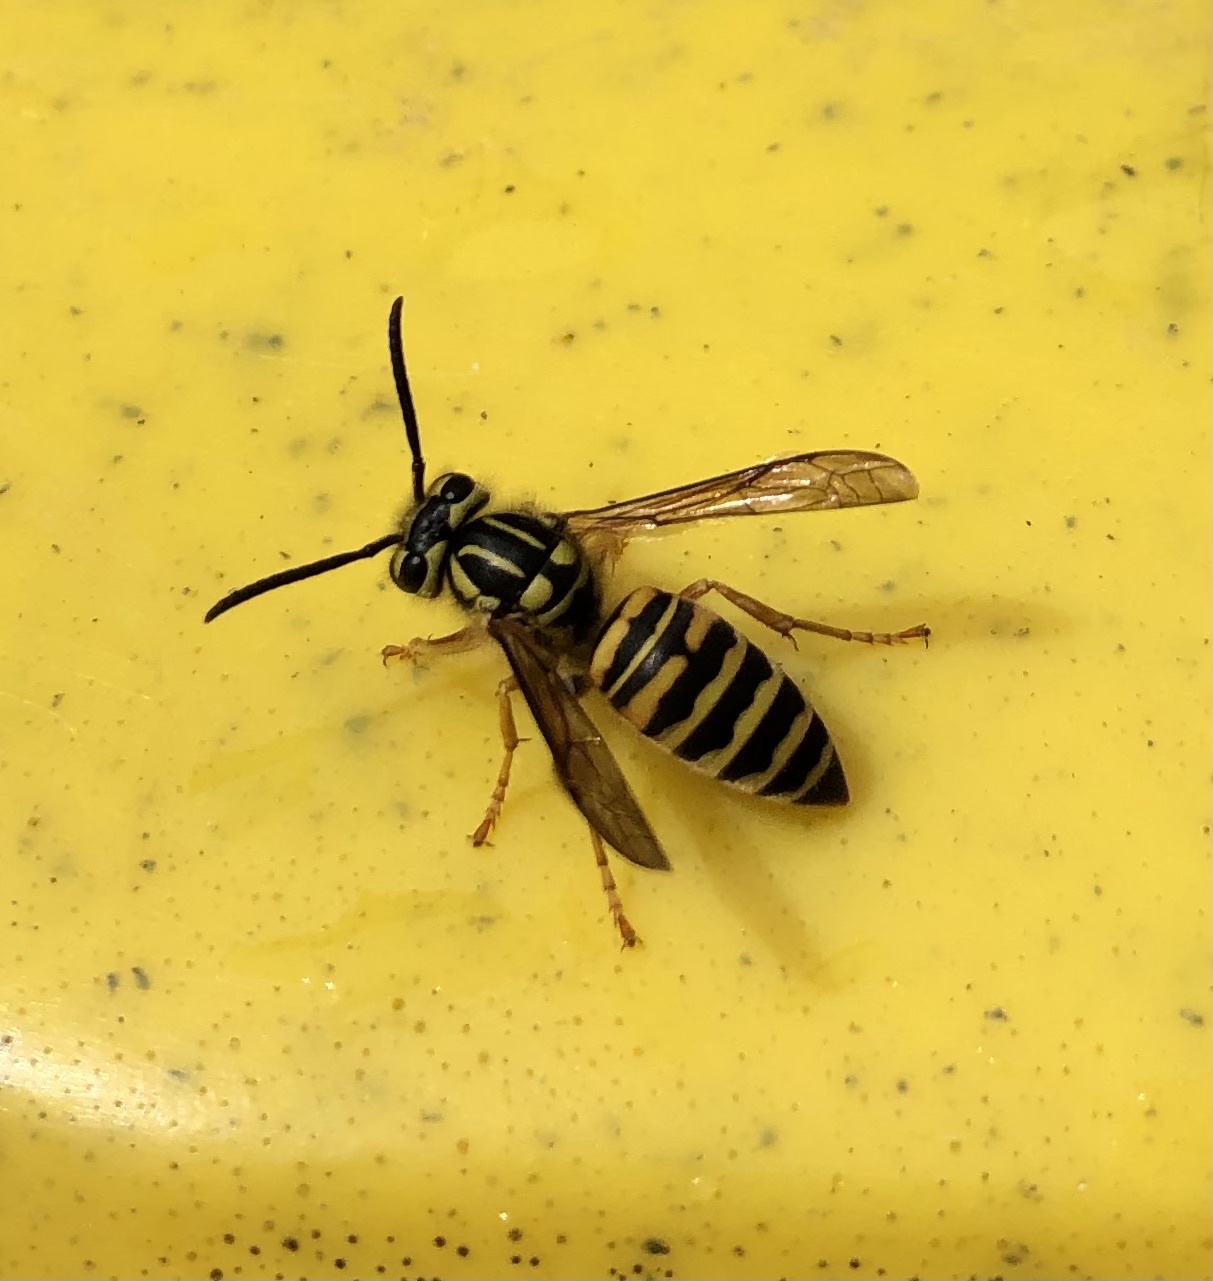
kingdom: Animalia
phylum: Arthropoda
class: Insecta
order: Hymenoptera
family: Vespidae
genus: Vespula
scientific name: Vespula squamosa
